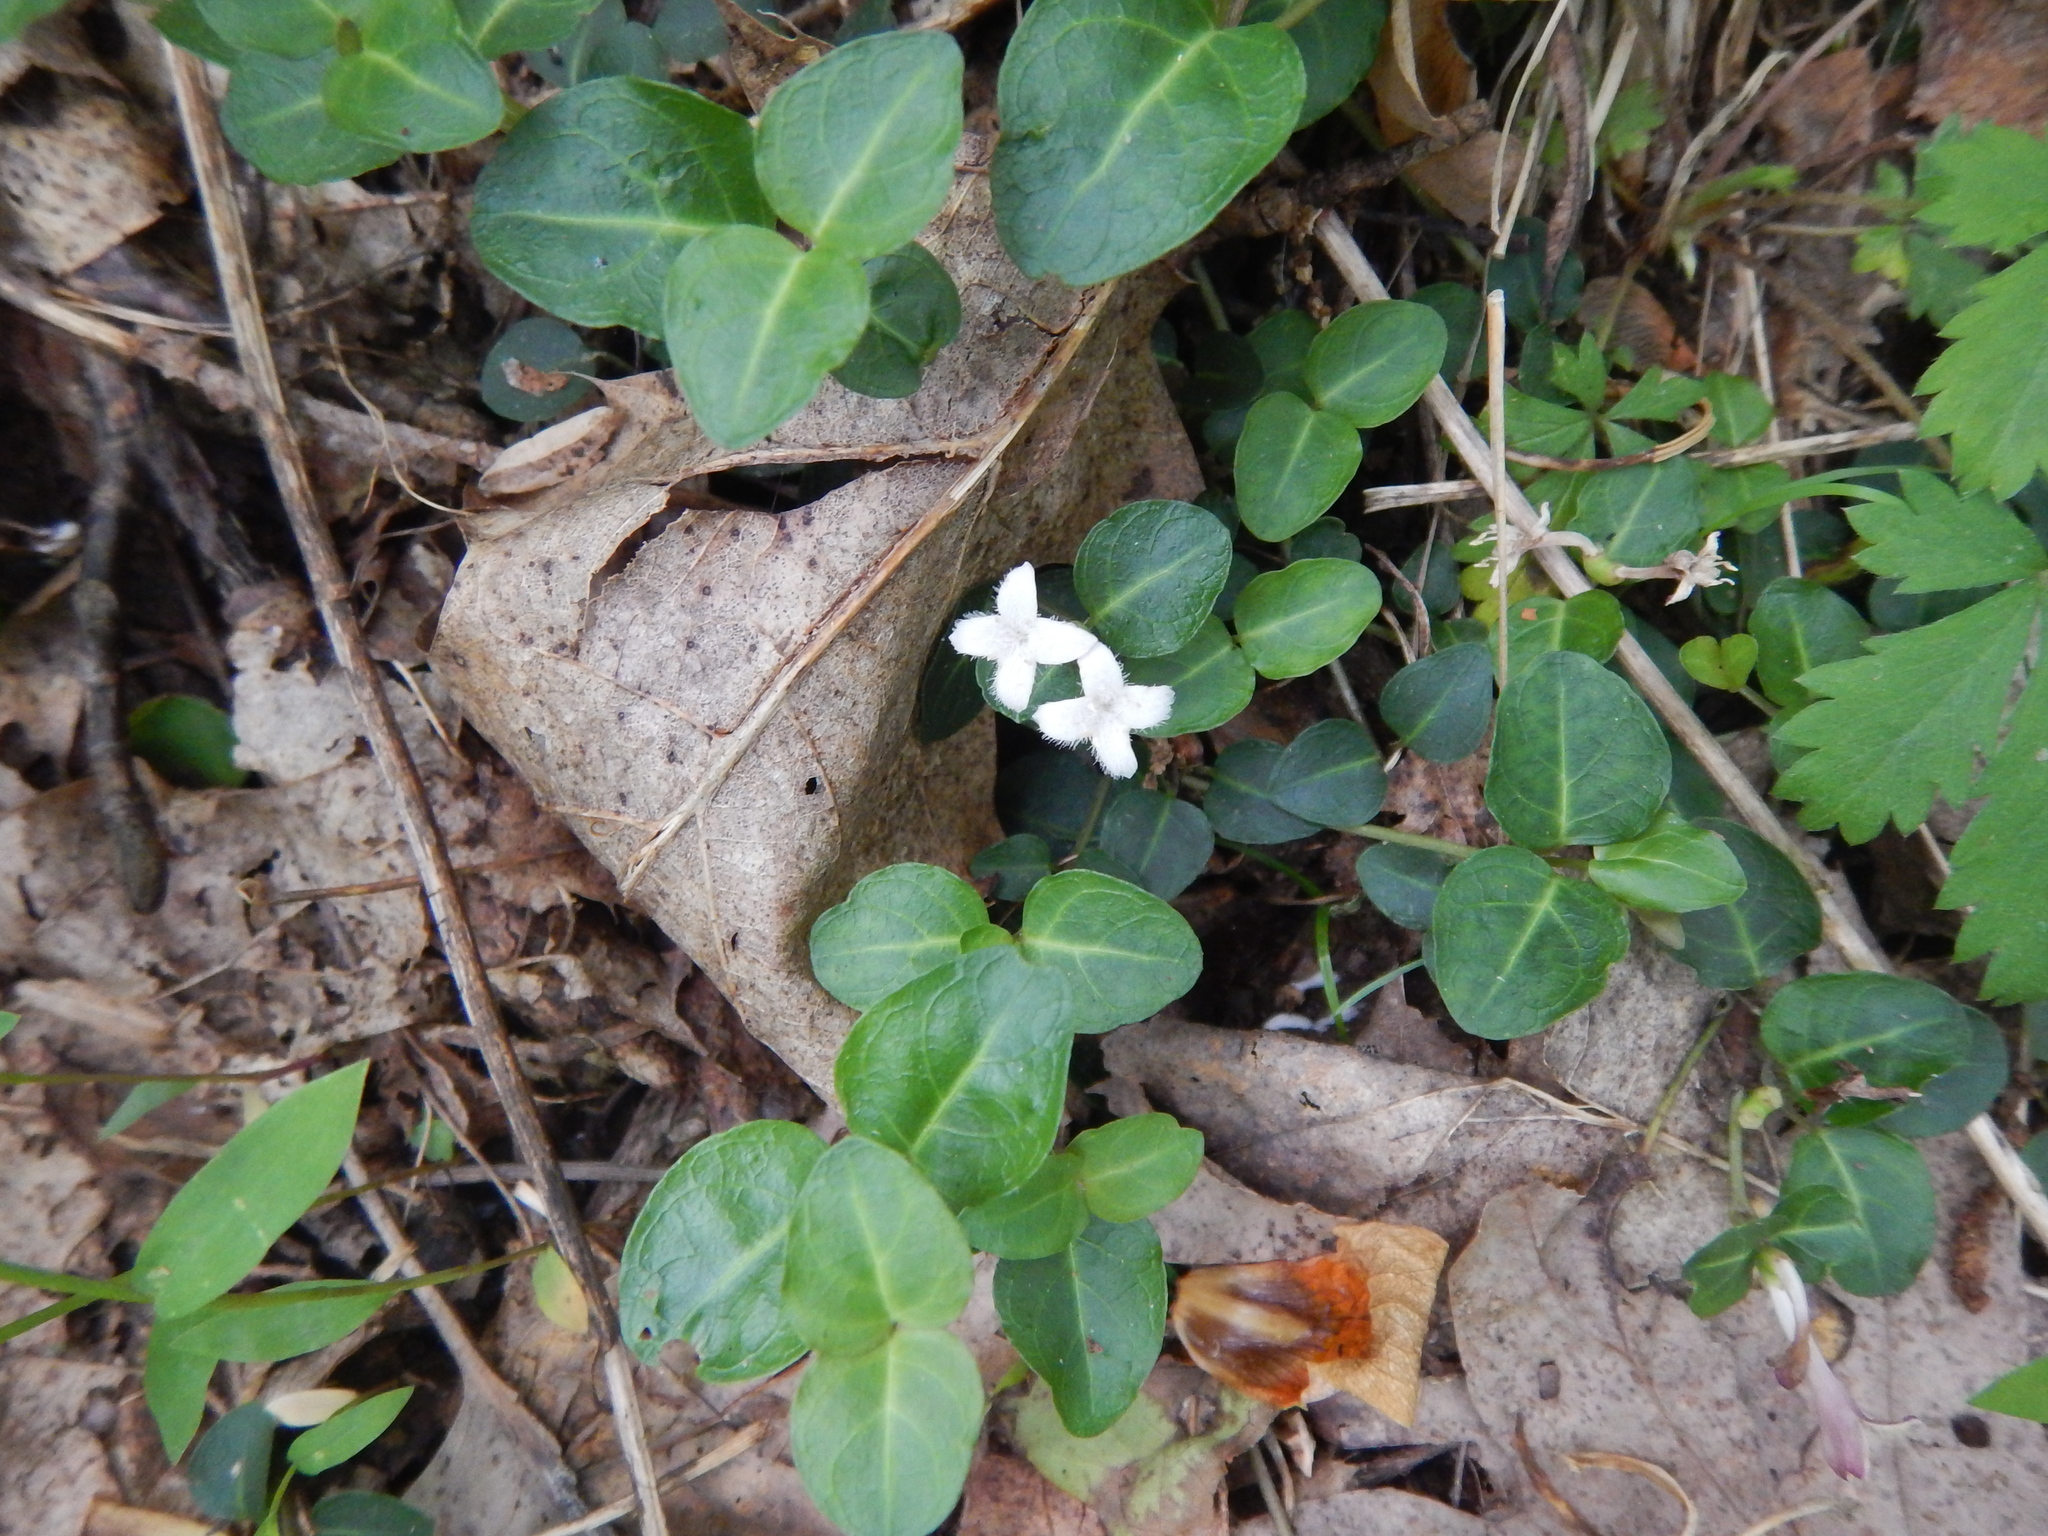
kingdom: Plantae
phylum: Tracheophyta
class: Magnoliopsida
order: Gentianales
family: Rubiaceae
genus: Mitchella
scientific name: Mitchella repens
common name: Partridge-berry
